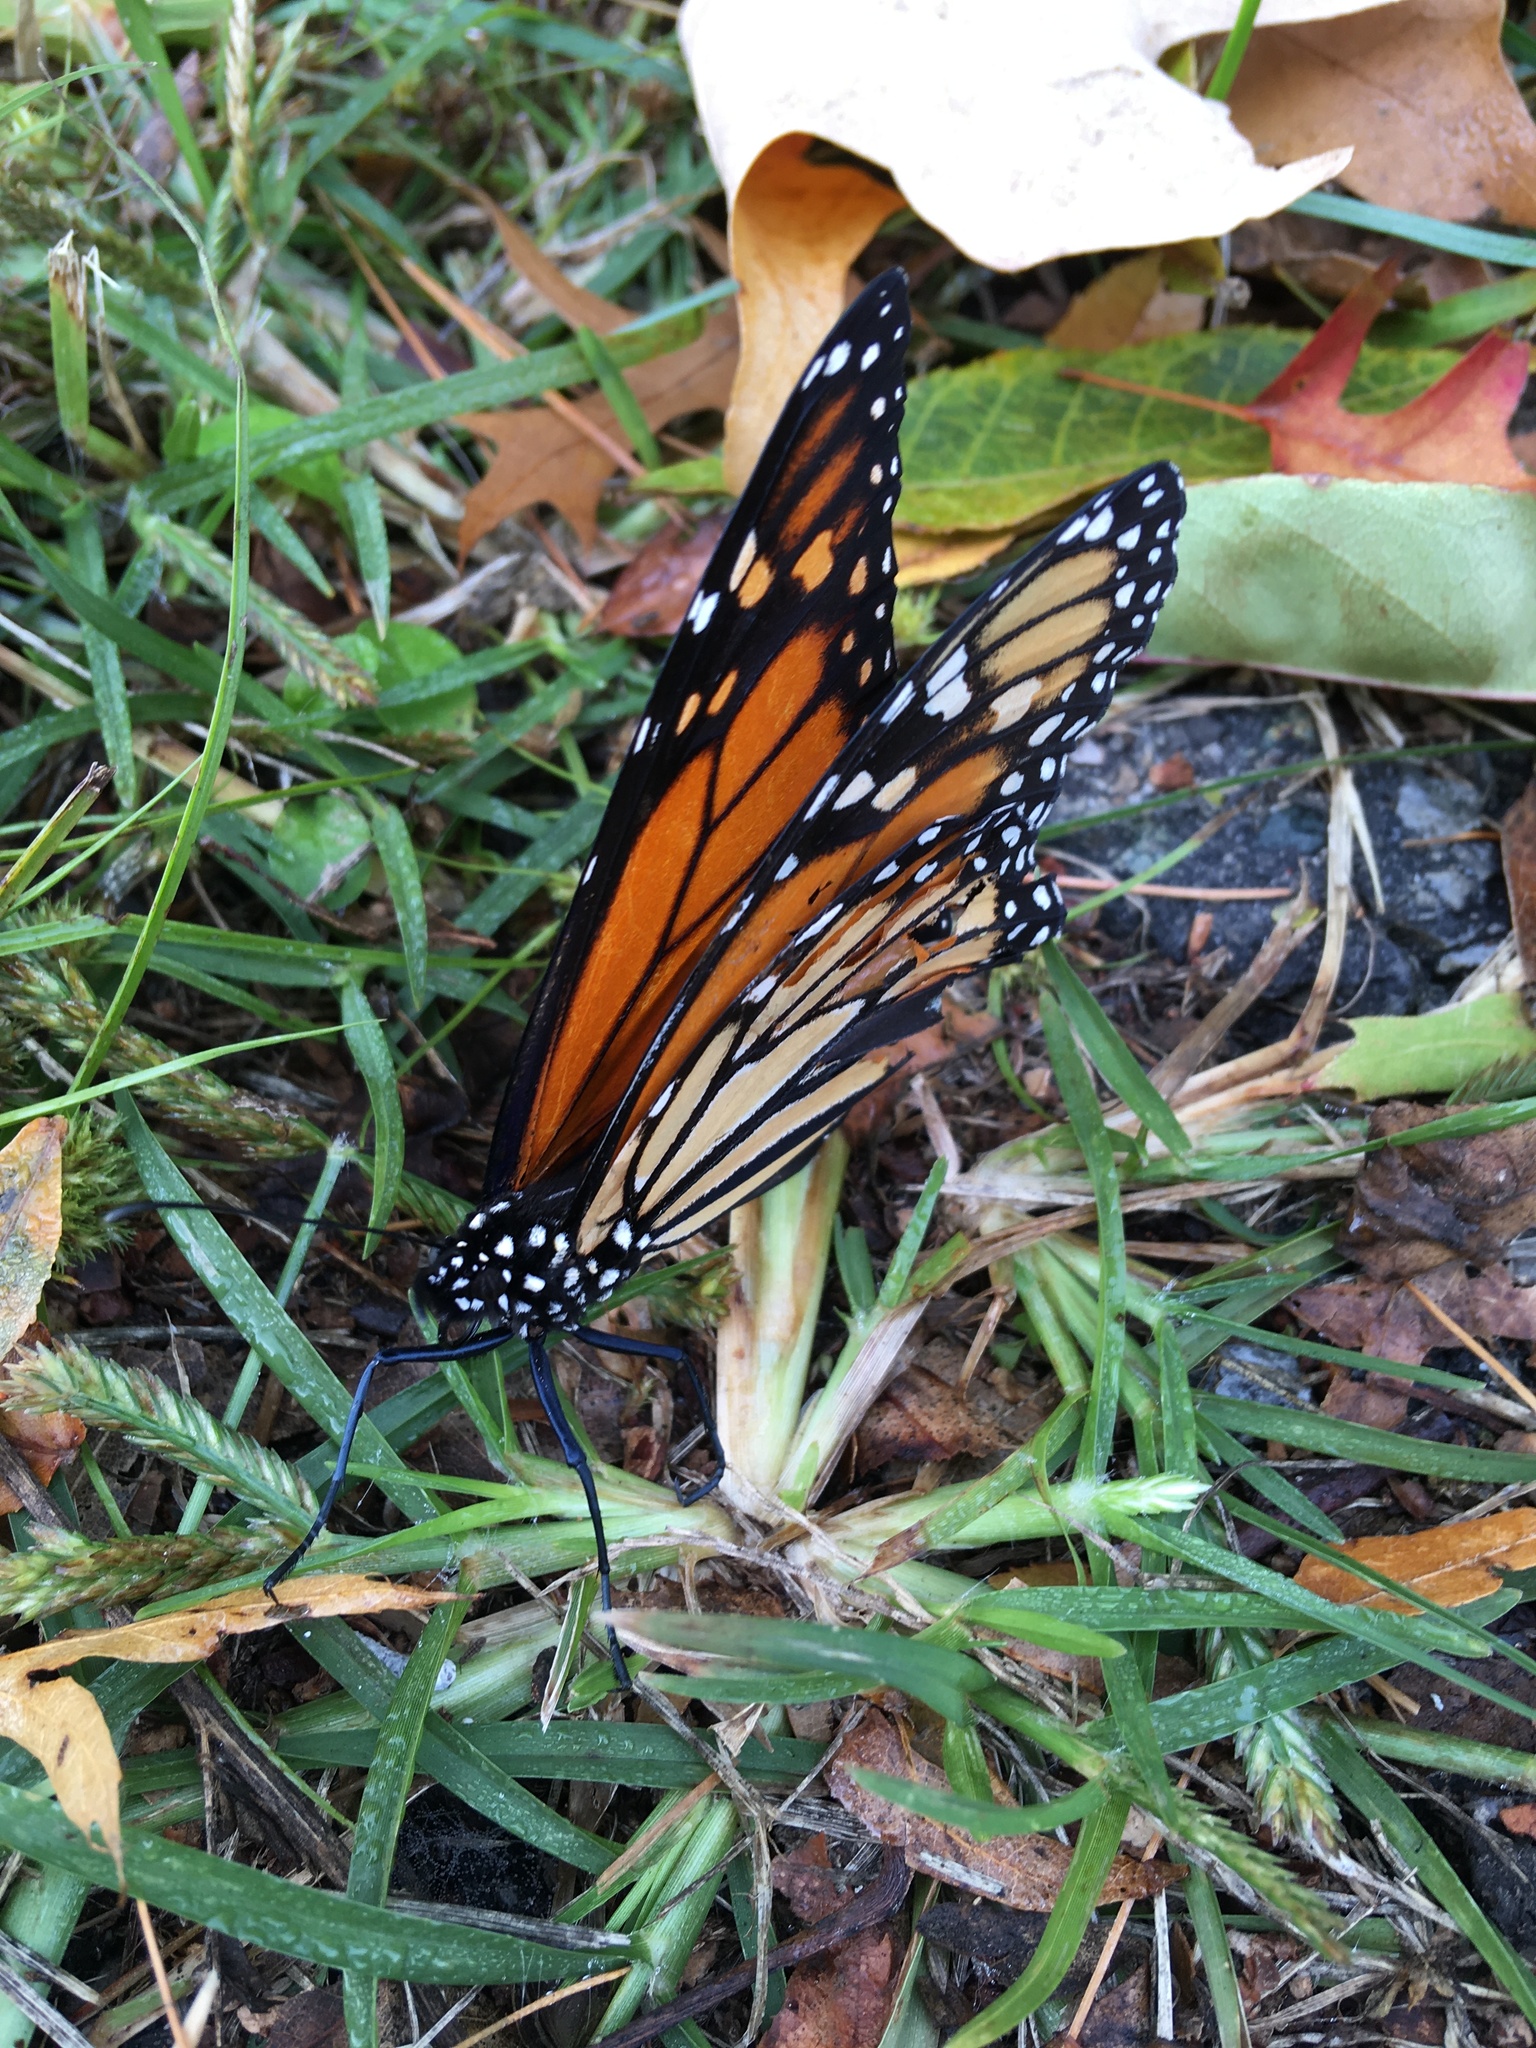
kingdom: Animalia
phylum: Arthropoda
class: Insecta
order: Lepidoptera
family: Nymphalidae
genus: Danaus
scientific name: Danaus plexippus
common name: Monarch
